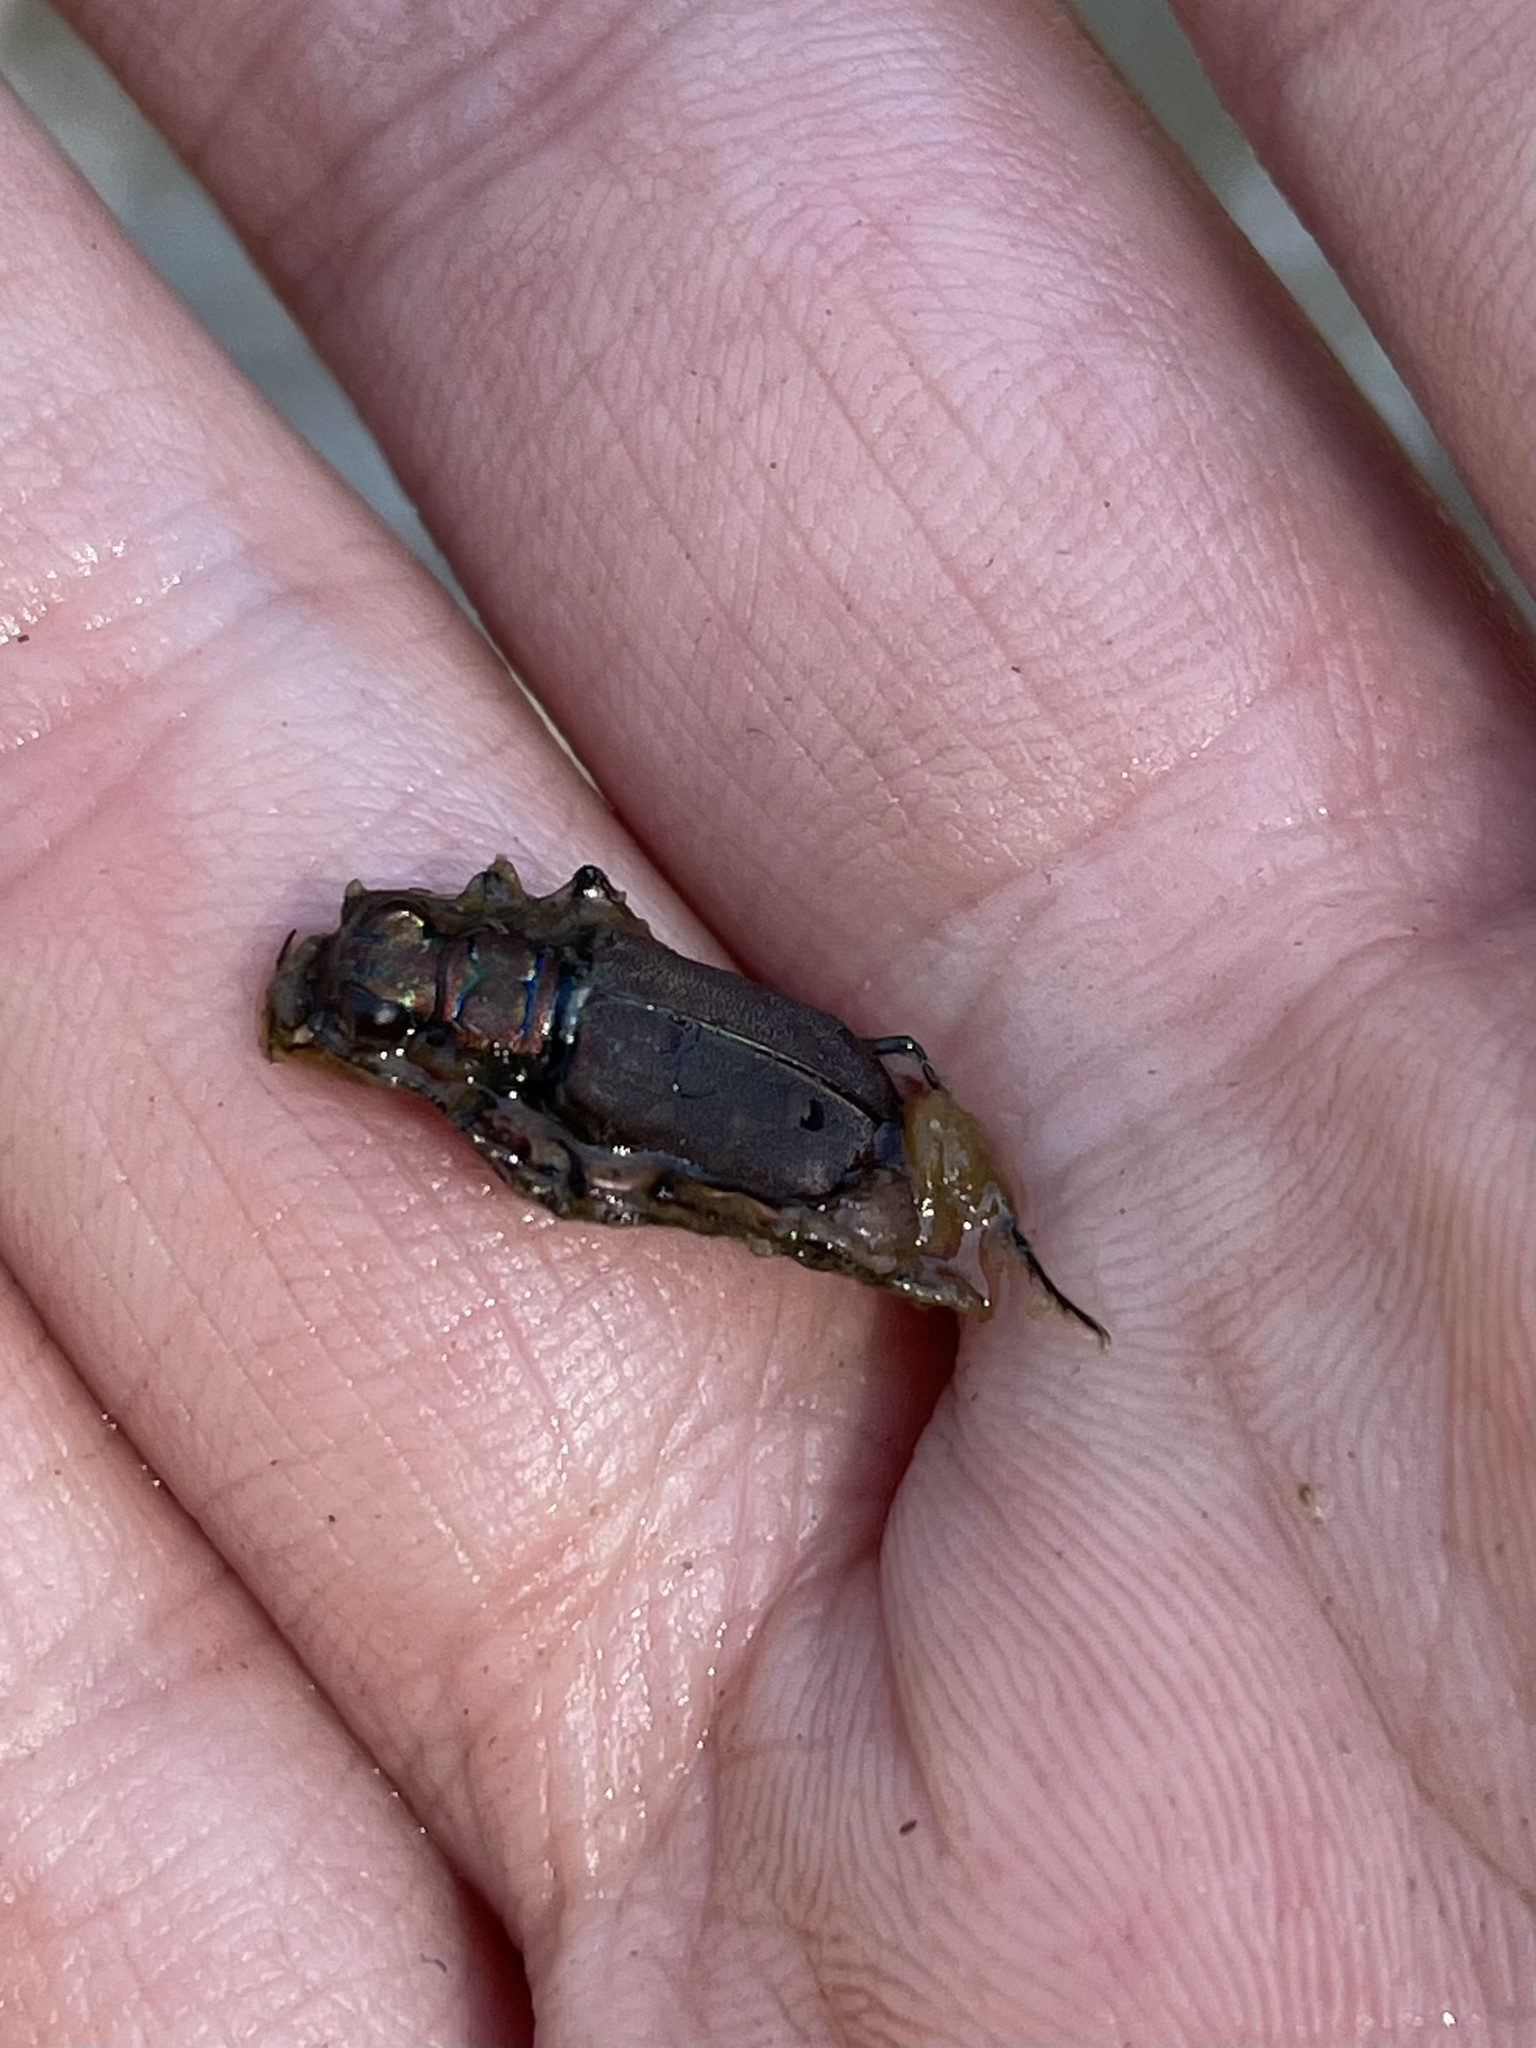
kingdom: Animalia
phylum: Arthropoda
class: Insecta
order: Coleoptera
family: Carabidae
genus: Cicindela
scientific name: Cicindela oregona
